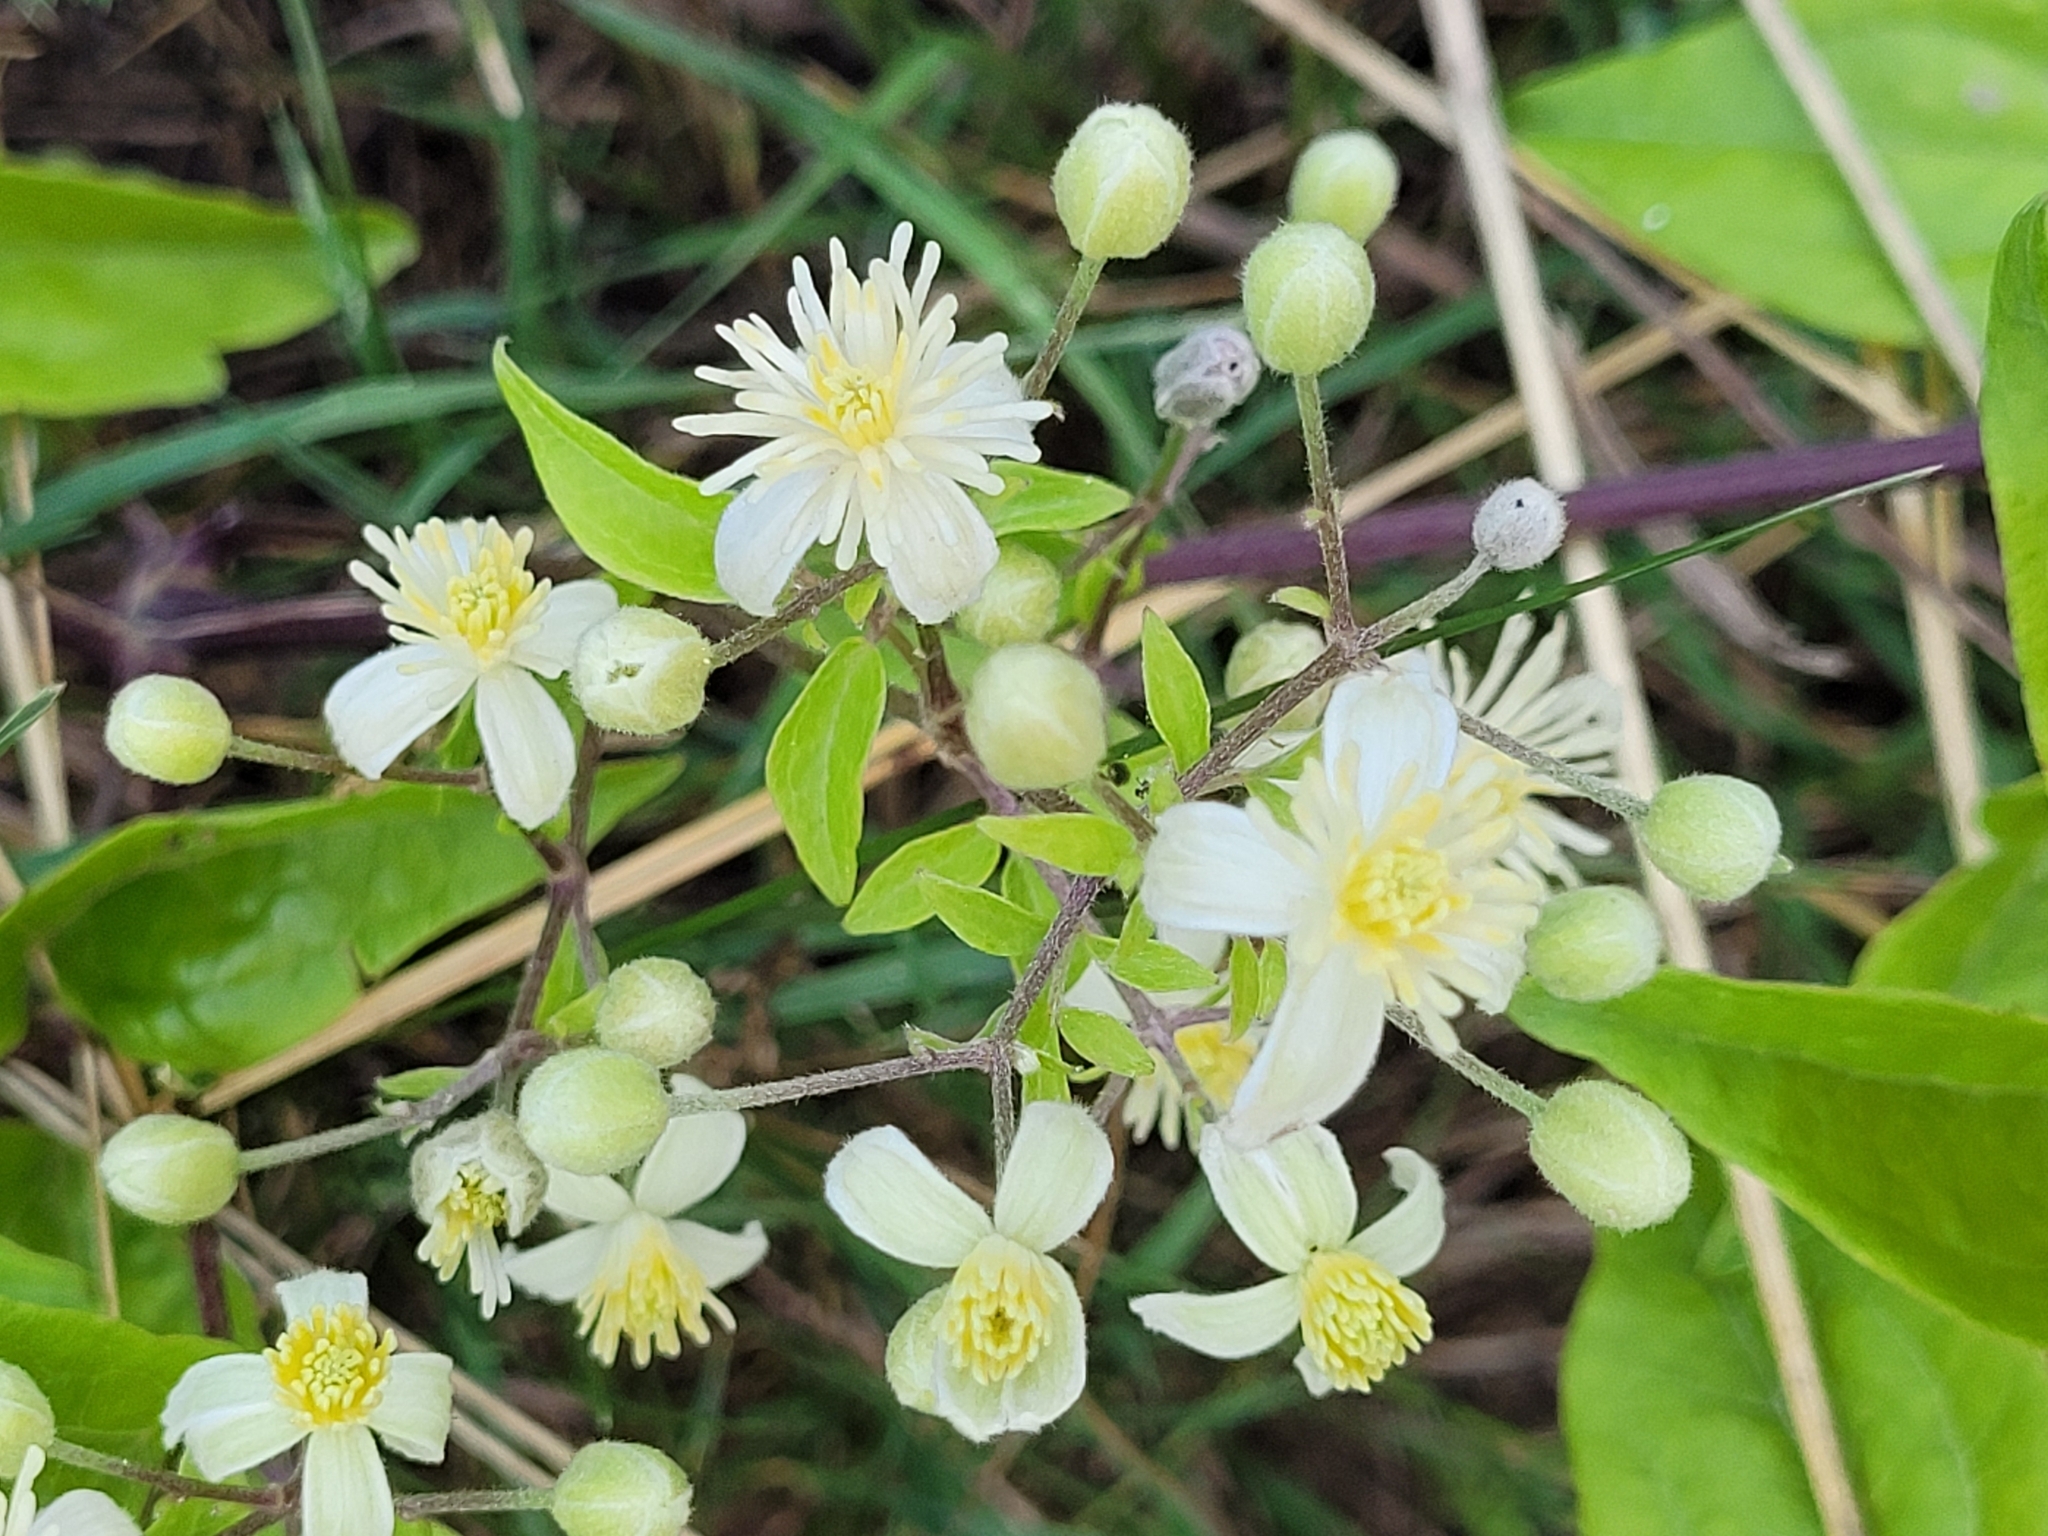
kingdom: Plantae
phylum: Tracheophyta
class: Magnoliopsida
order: Ranunculales
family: Ranunculaceae
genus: Clematis
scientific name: Clematis vitalba
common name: Evergreen clematis
